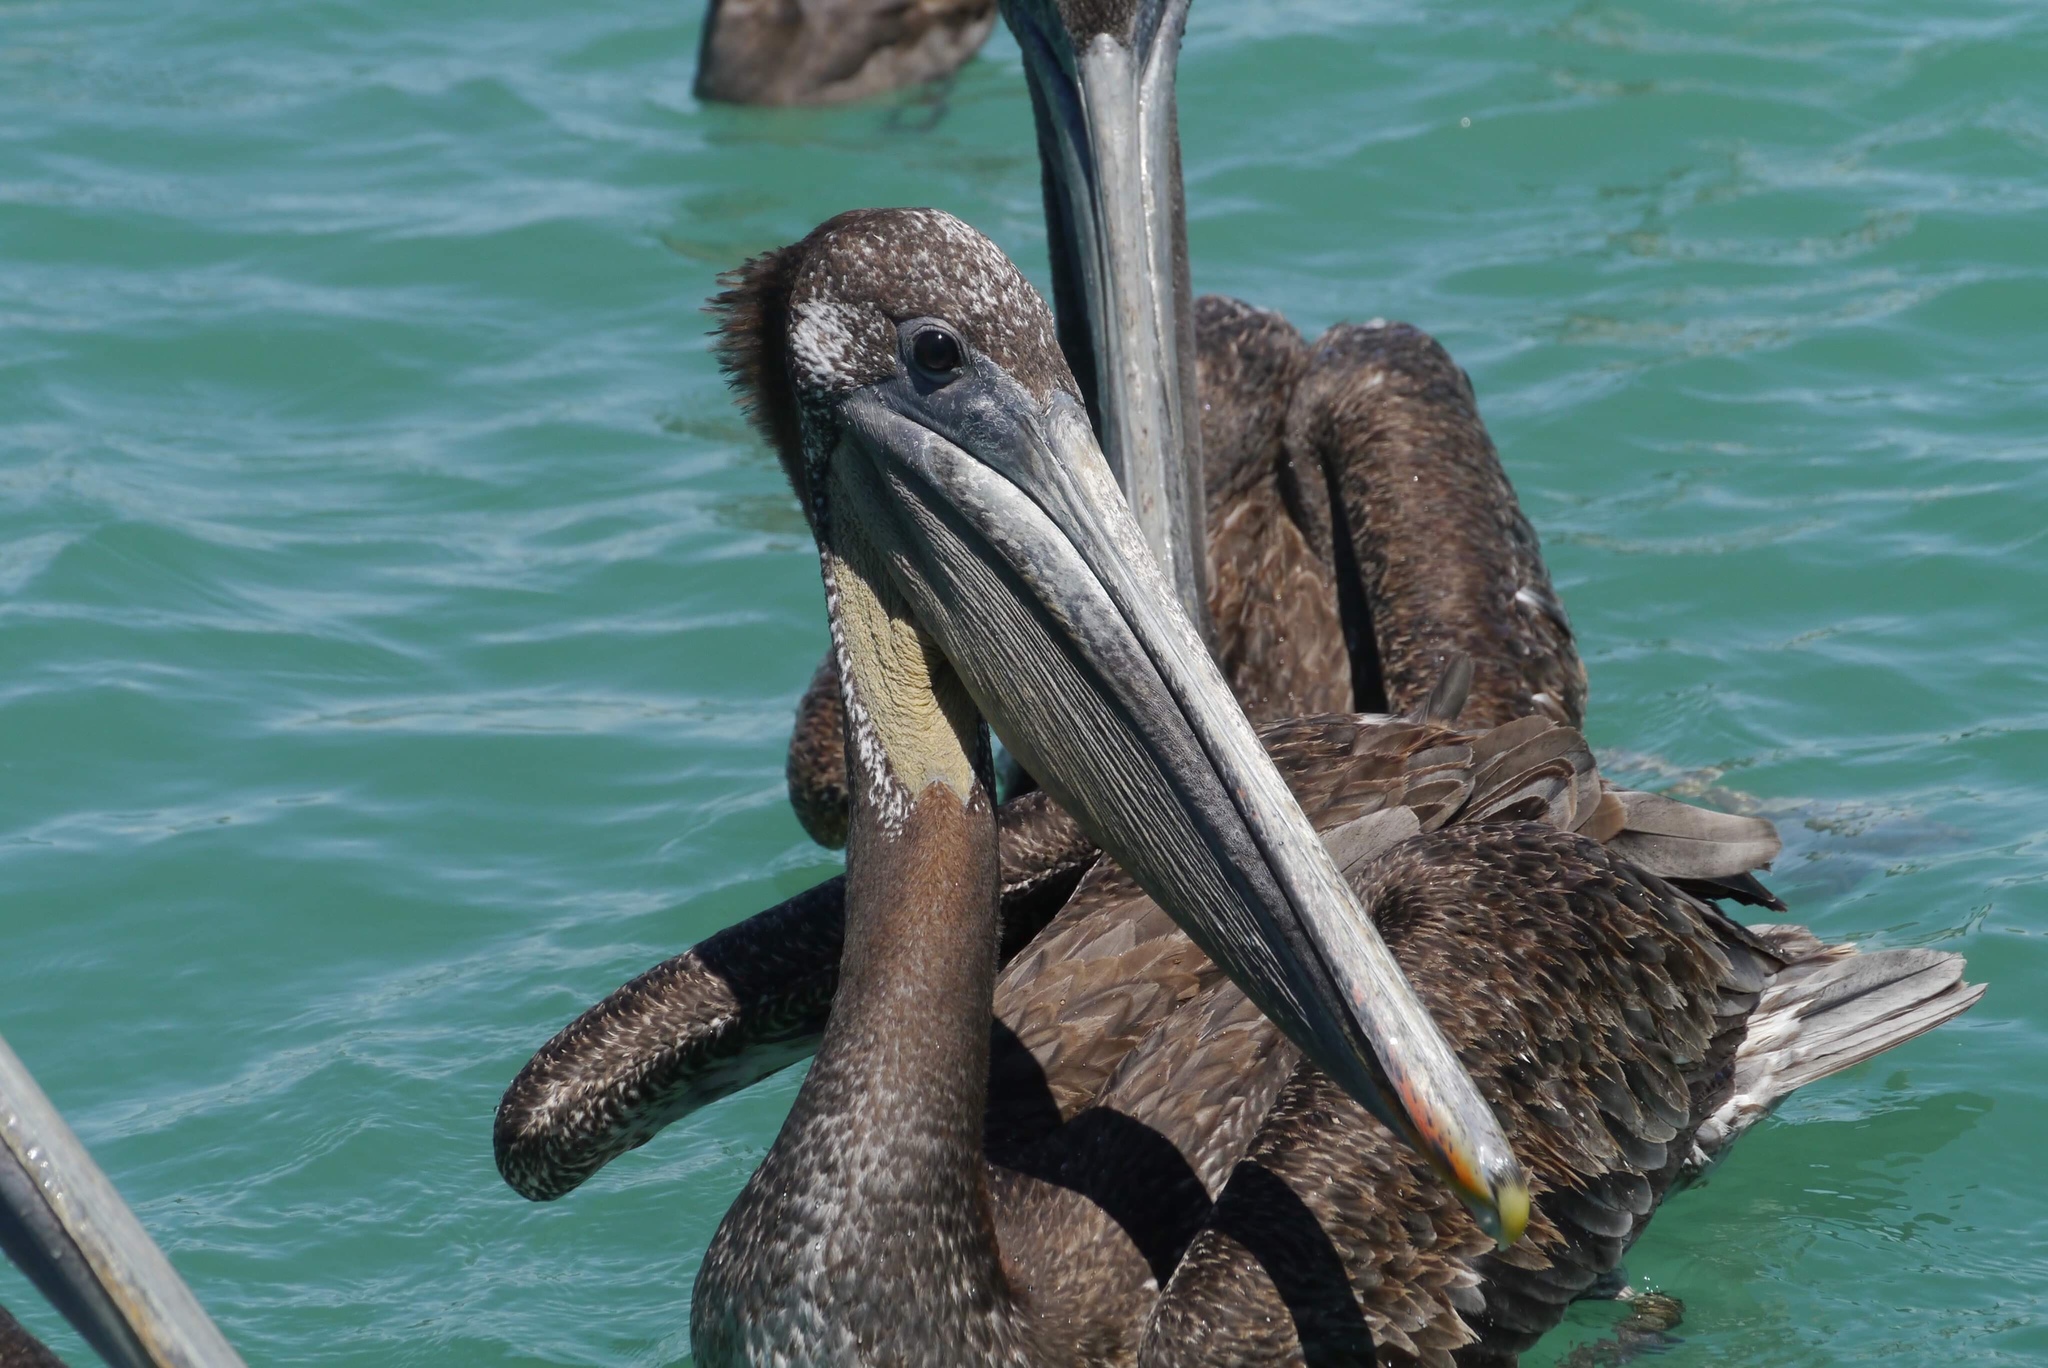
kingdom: Animalia
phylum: Chordata
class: Aves
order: Pelecaniformes
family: Pelecanidae
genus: Pelecanus
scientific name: Pelecanus occidentalis
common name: Brown pelican
